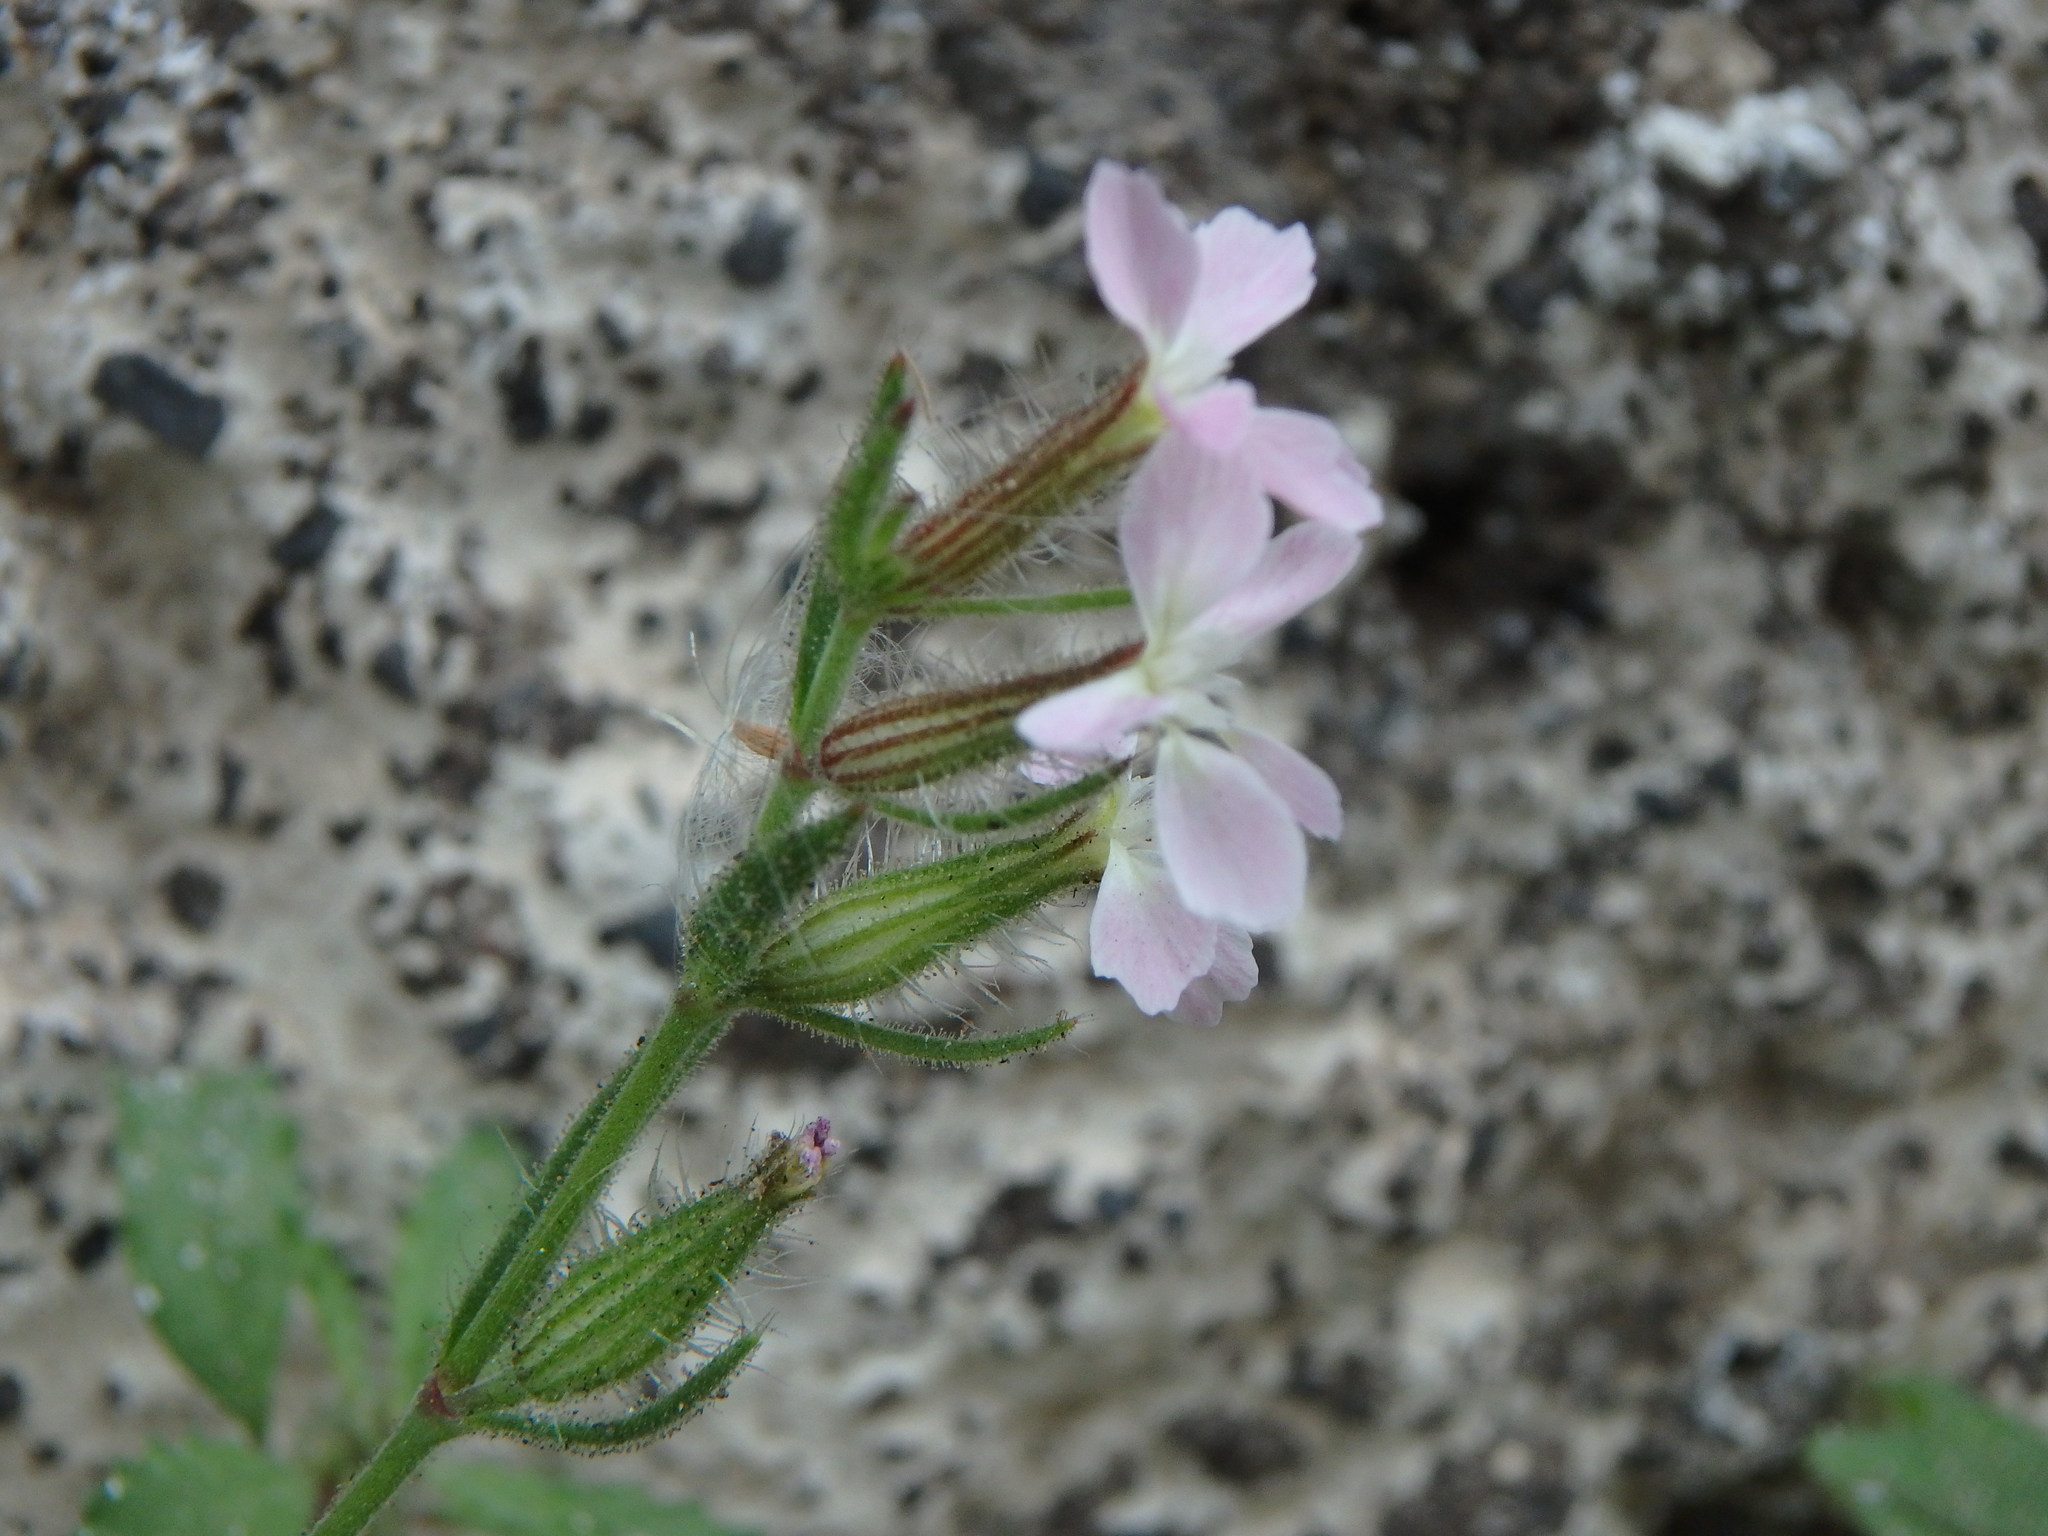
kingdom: Plantae
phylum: Tracheophyta
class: Magnoliopsida
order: Caryophyllales
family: Caryophyllaceae
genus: Silene
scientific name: Silene gallica
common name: Small-flowered catchfly
